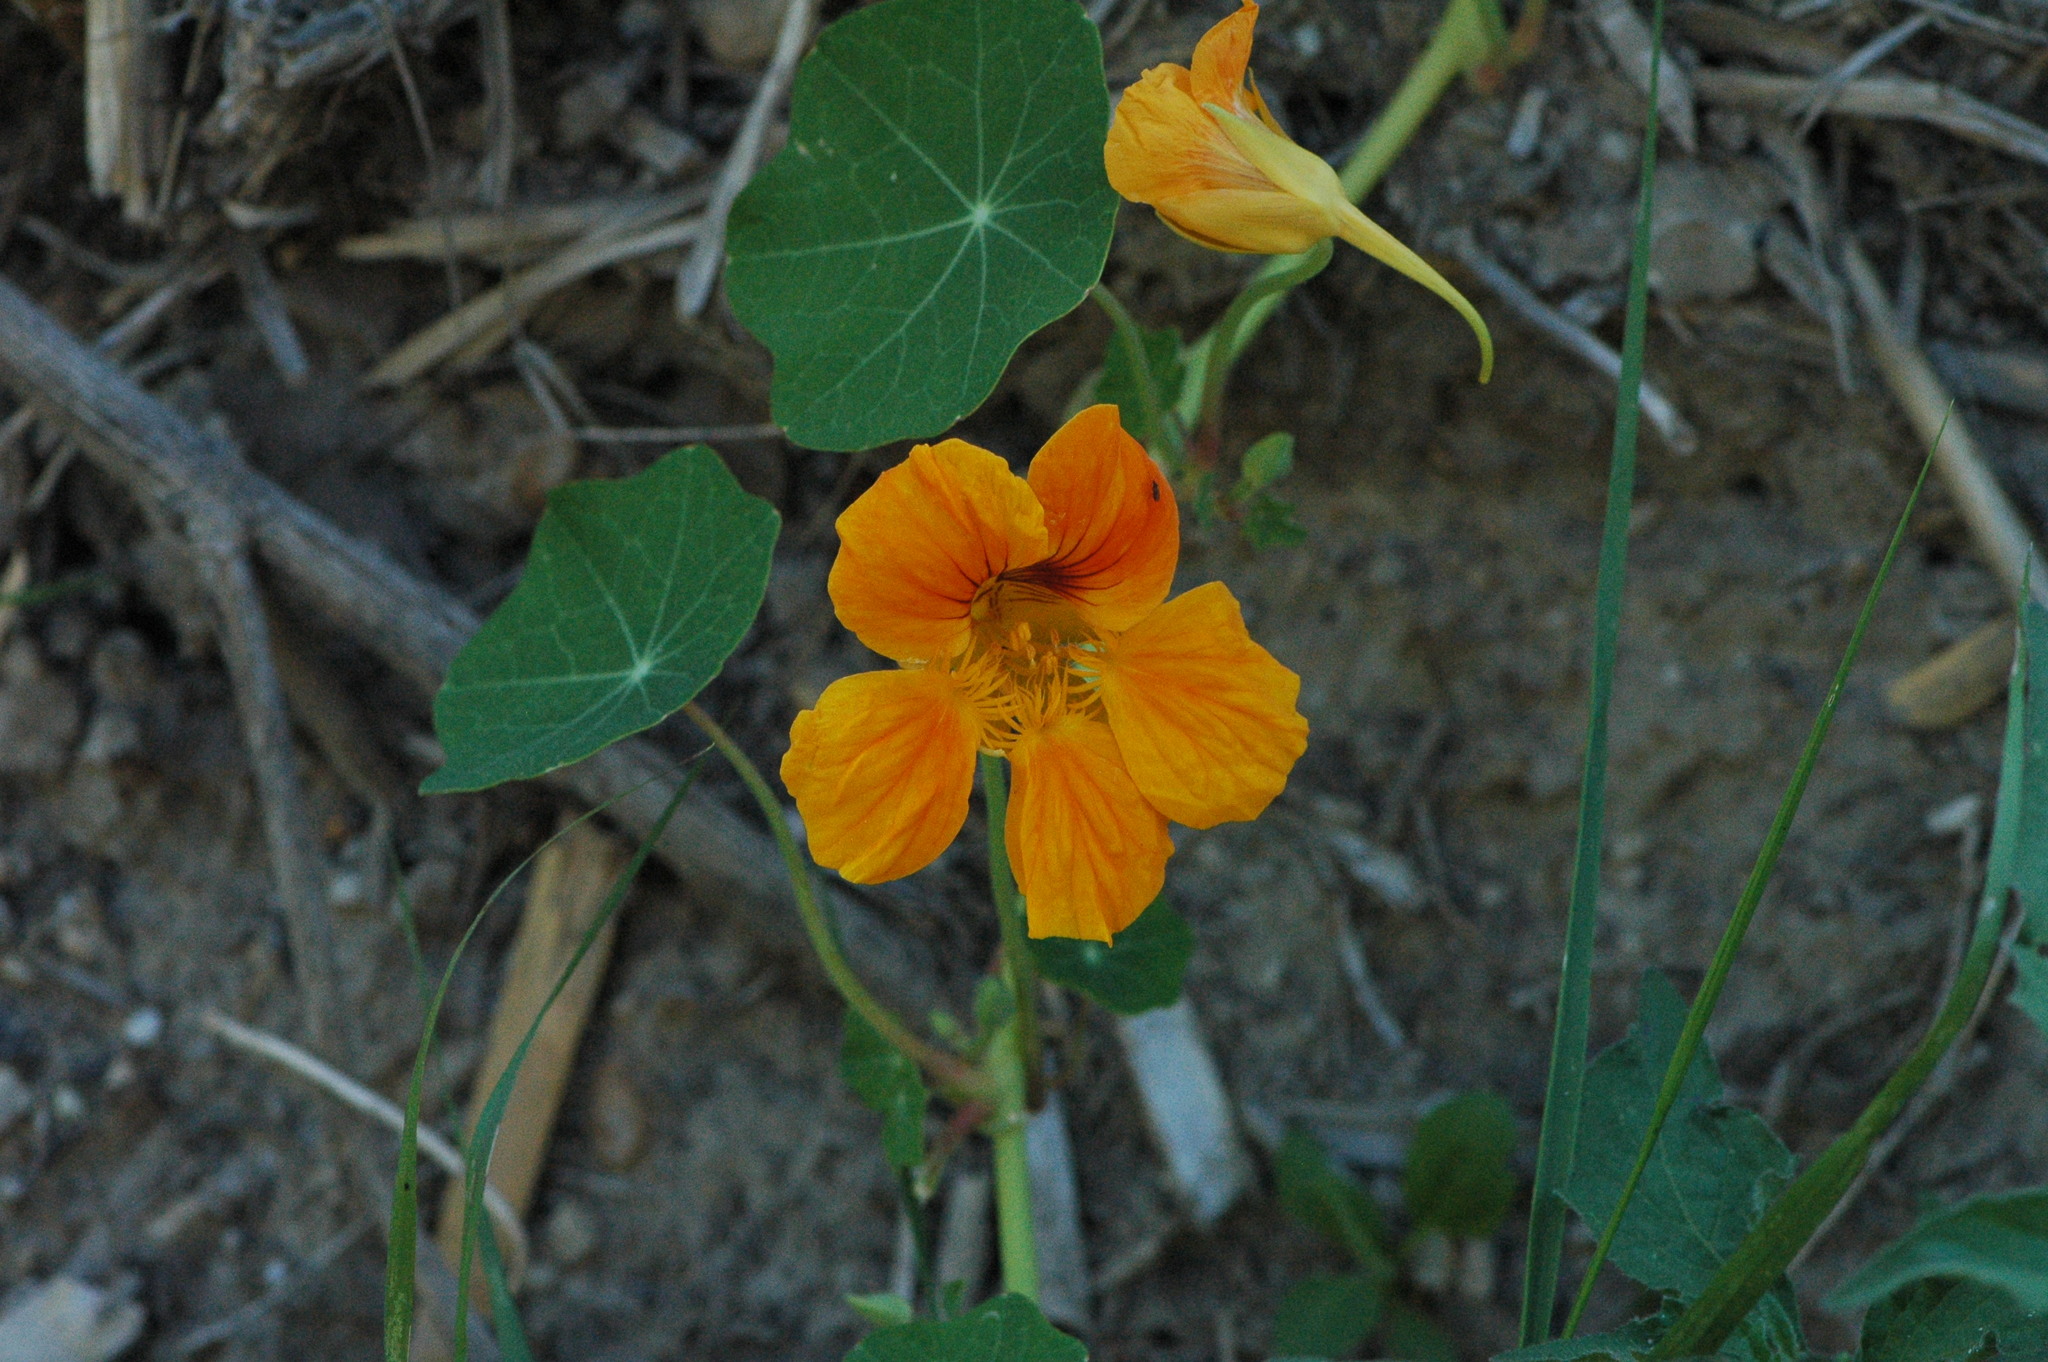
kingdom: Plantae
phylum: Tracheophyta
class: Magnoliopsida
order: Brassicales
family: Tropaeolaceae
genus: Tropaeolum
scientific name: Tropaeolum majus
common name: Nasturtium
